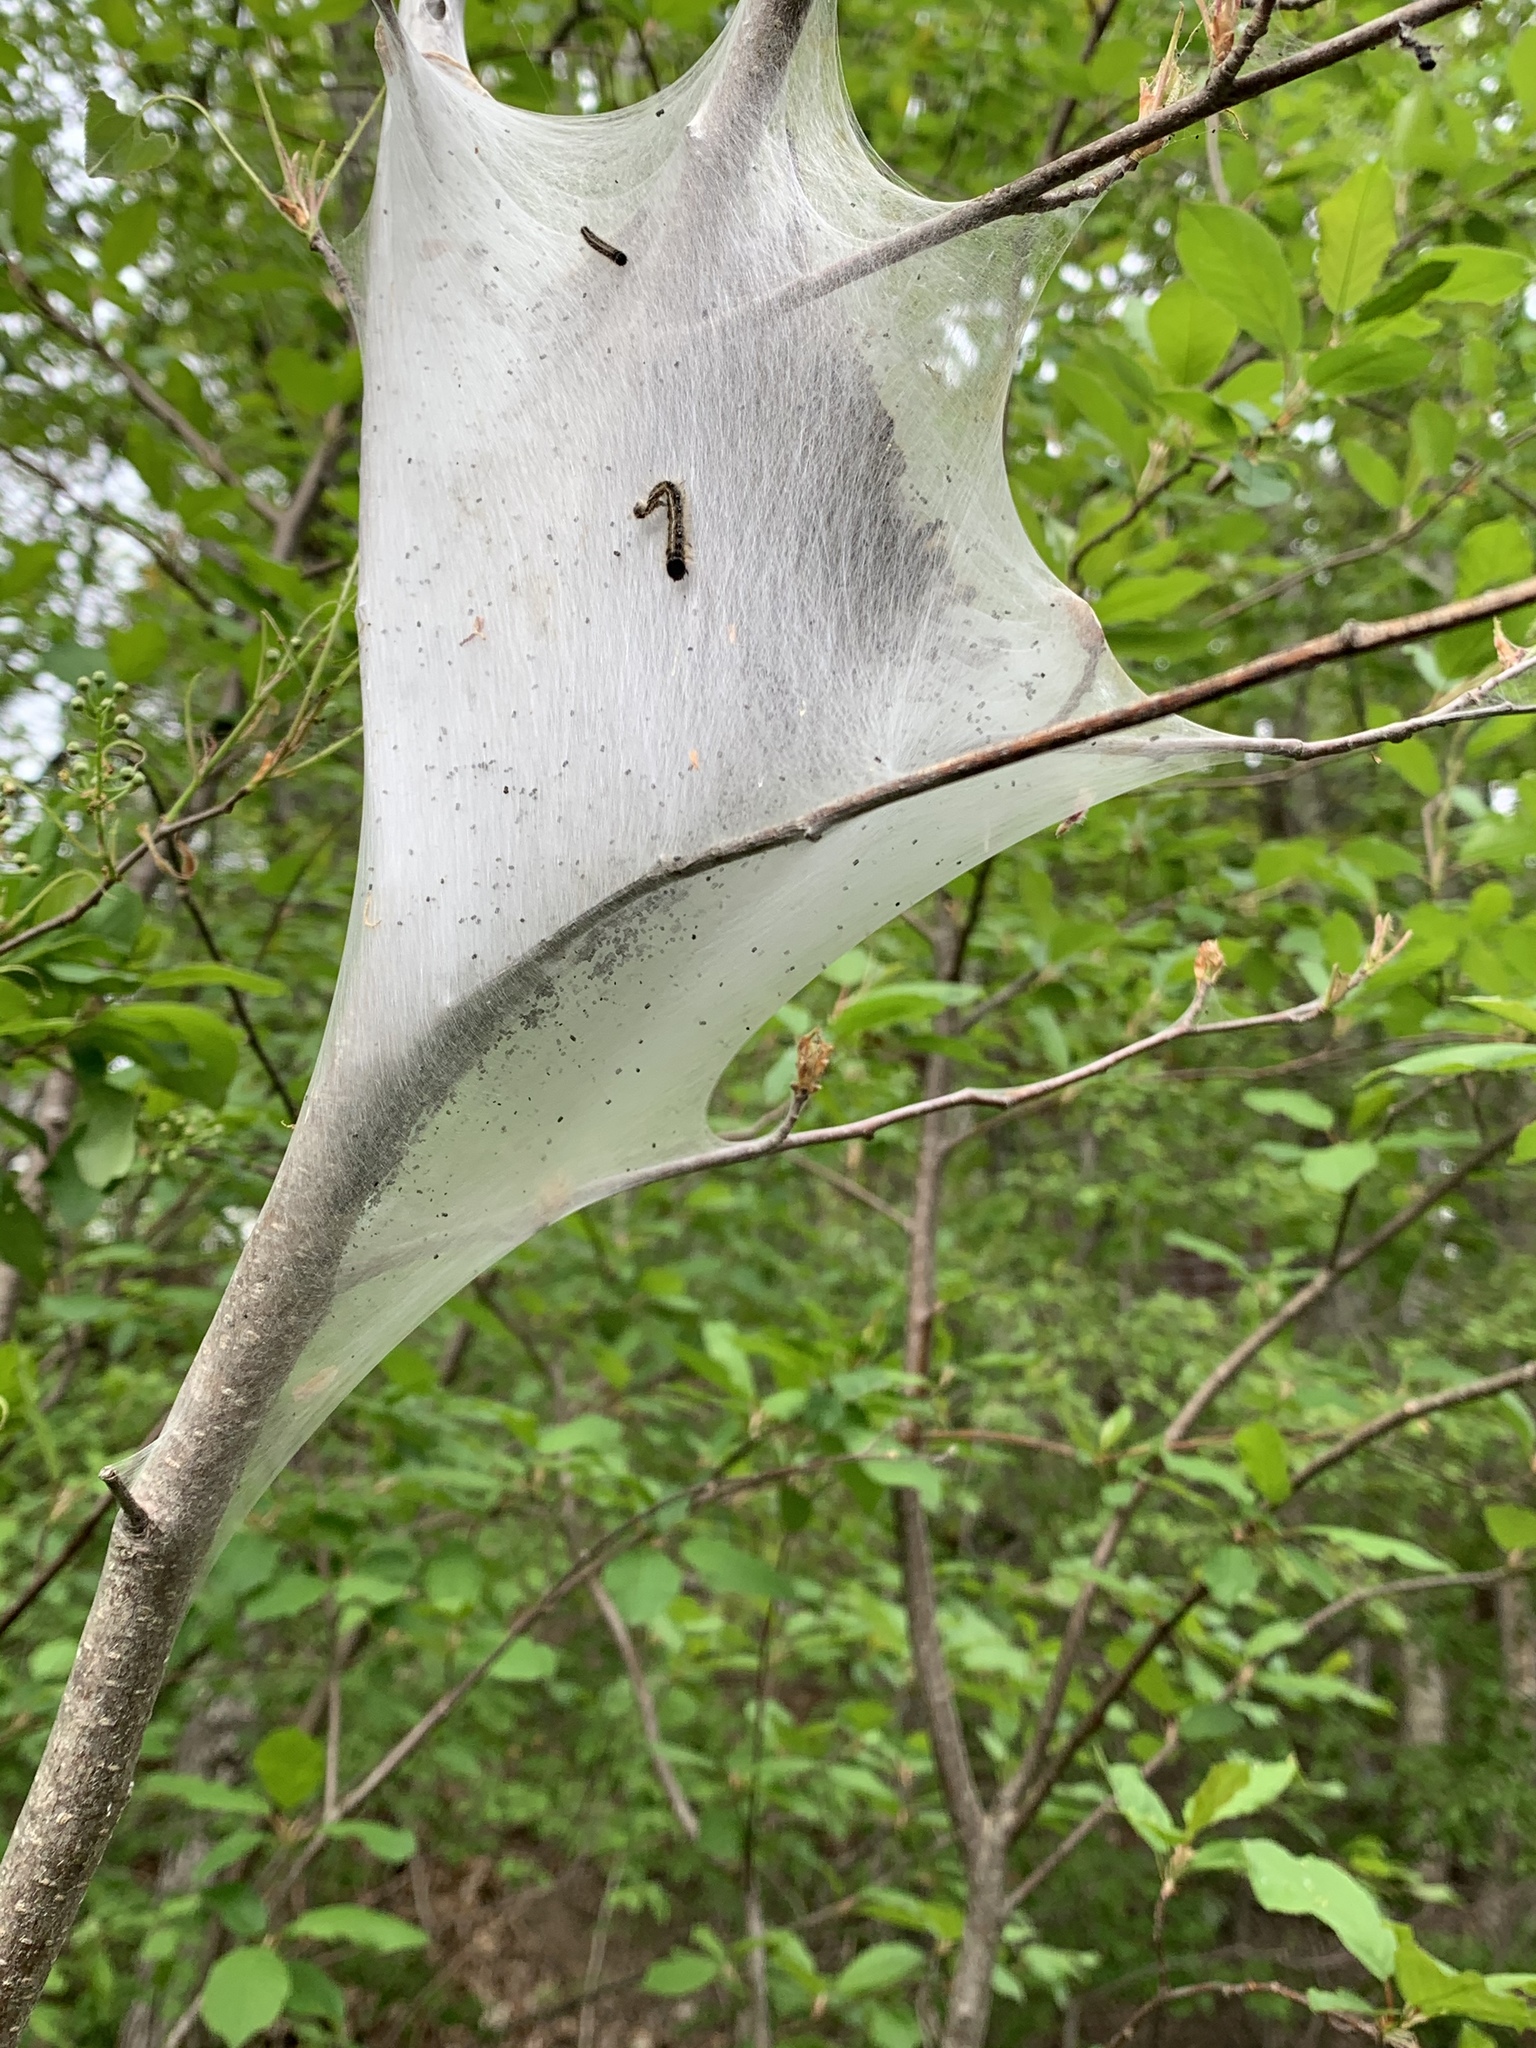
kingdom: Animalia
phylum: Arthropoda
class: Insecta
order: Lepidoptera
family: Lasiocampidae
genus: Malacosoma
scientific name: Malacosoma americana
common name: Eastern tent caterpillar moth
